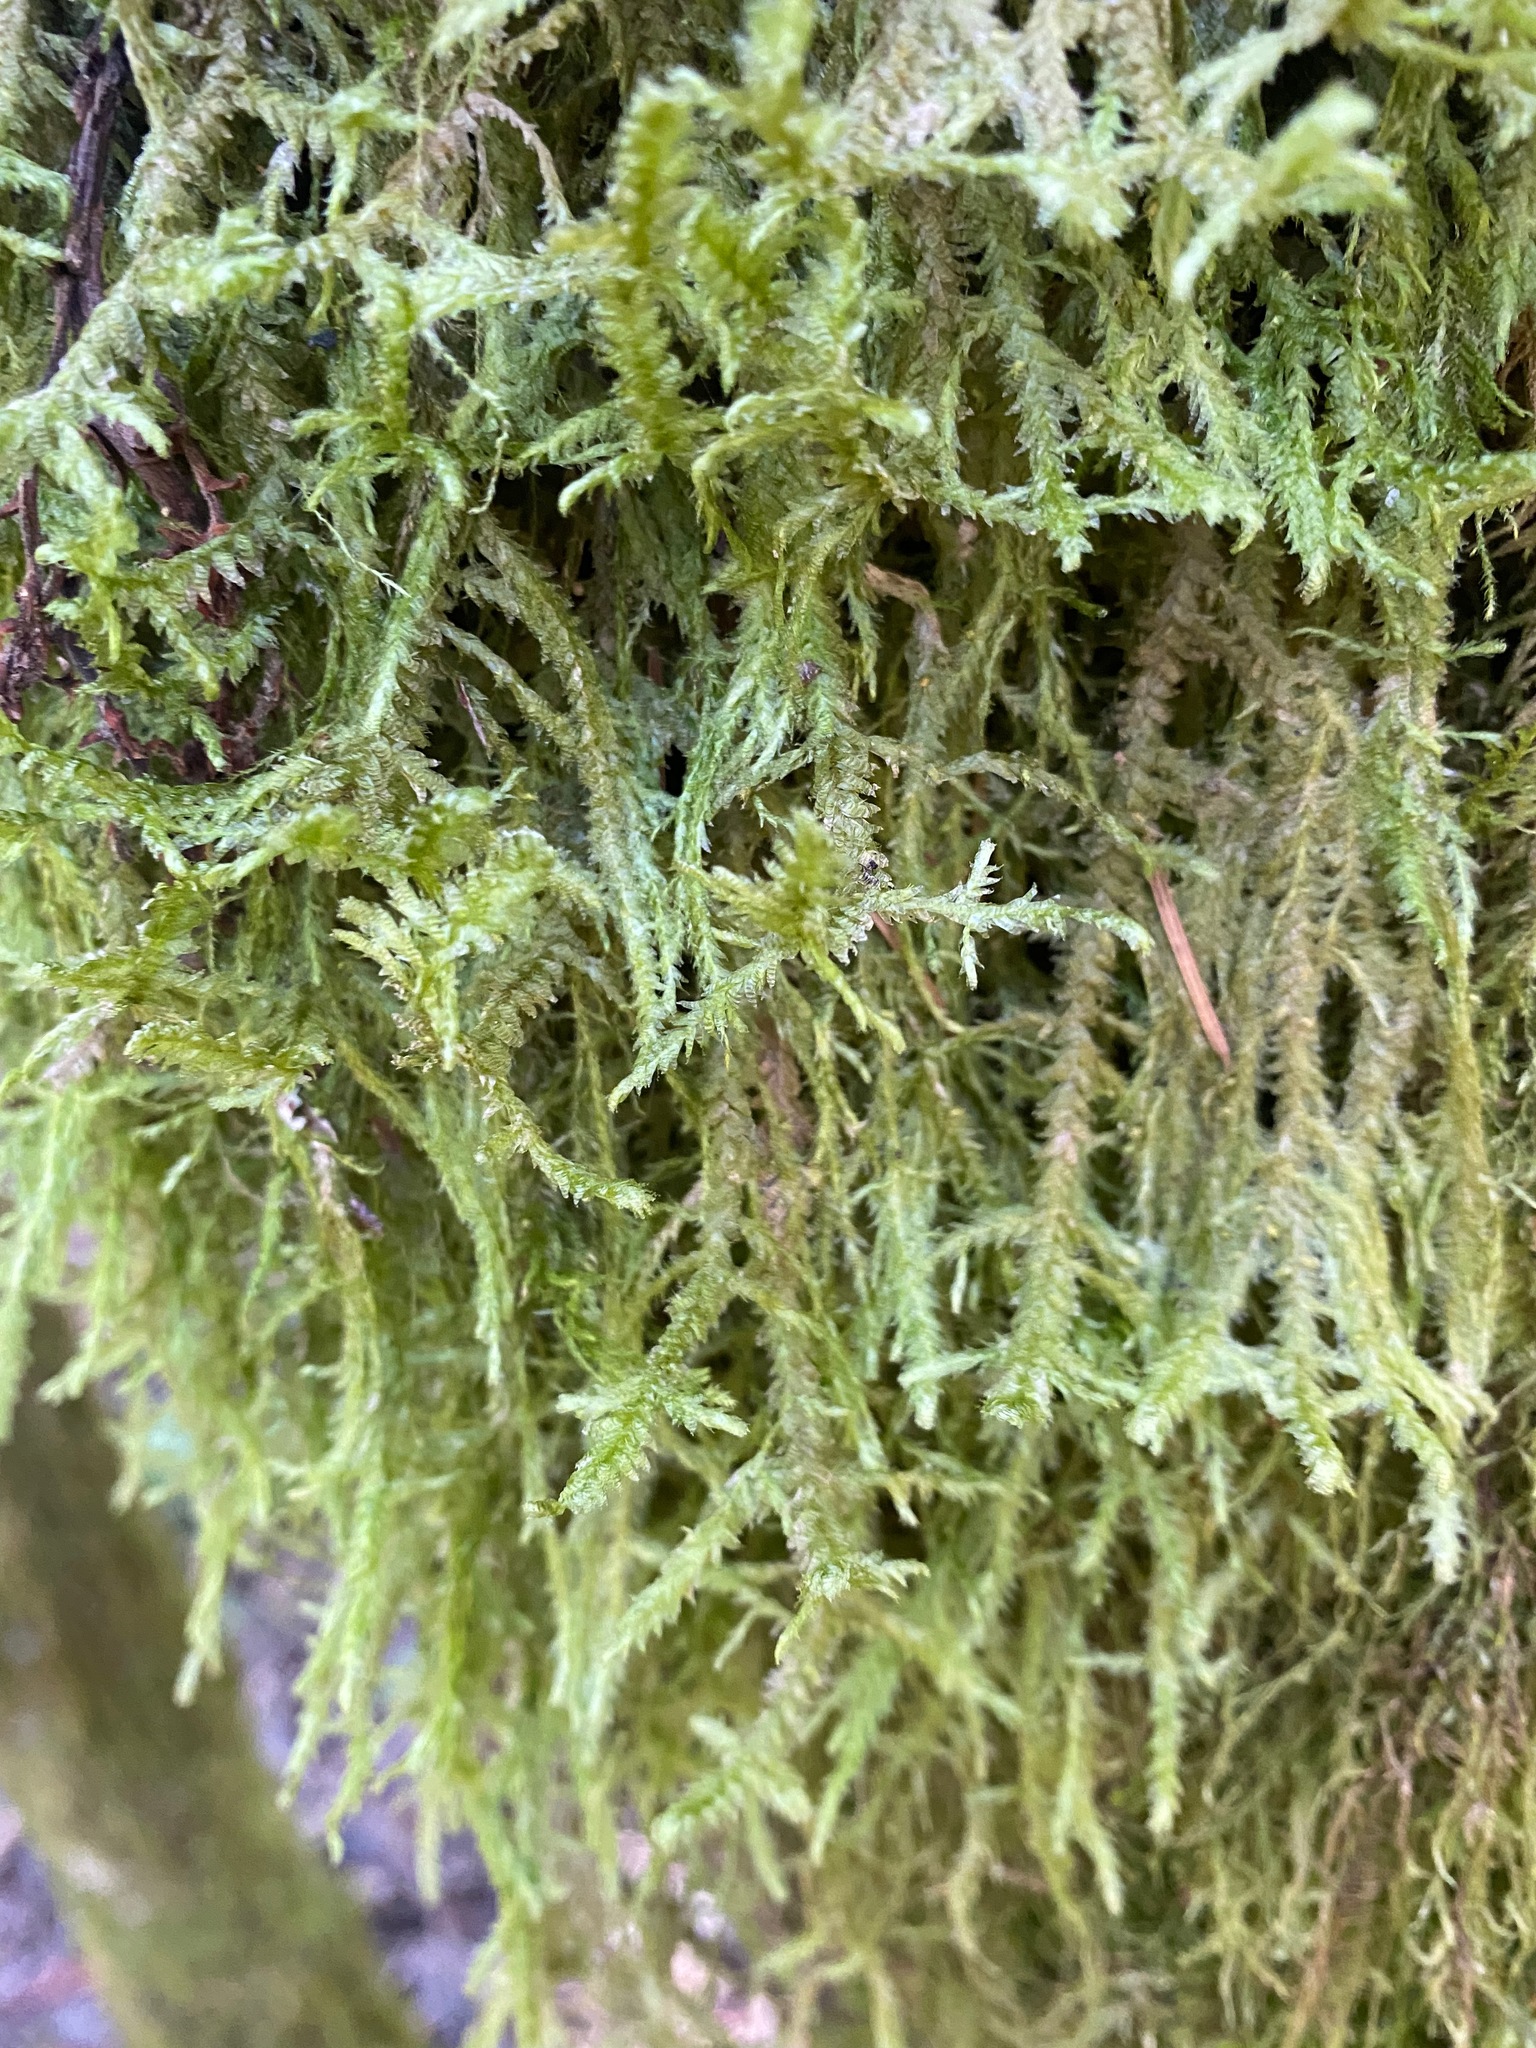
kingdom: Plantae
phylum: Bryophyta
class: Bryopsida
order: Hypnales
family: Neckeraceae
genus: Neckera
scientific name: Neckera douglasii
